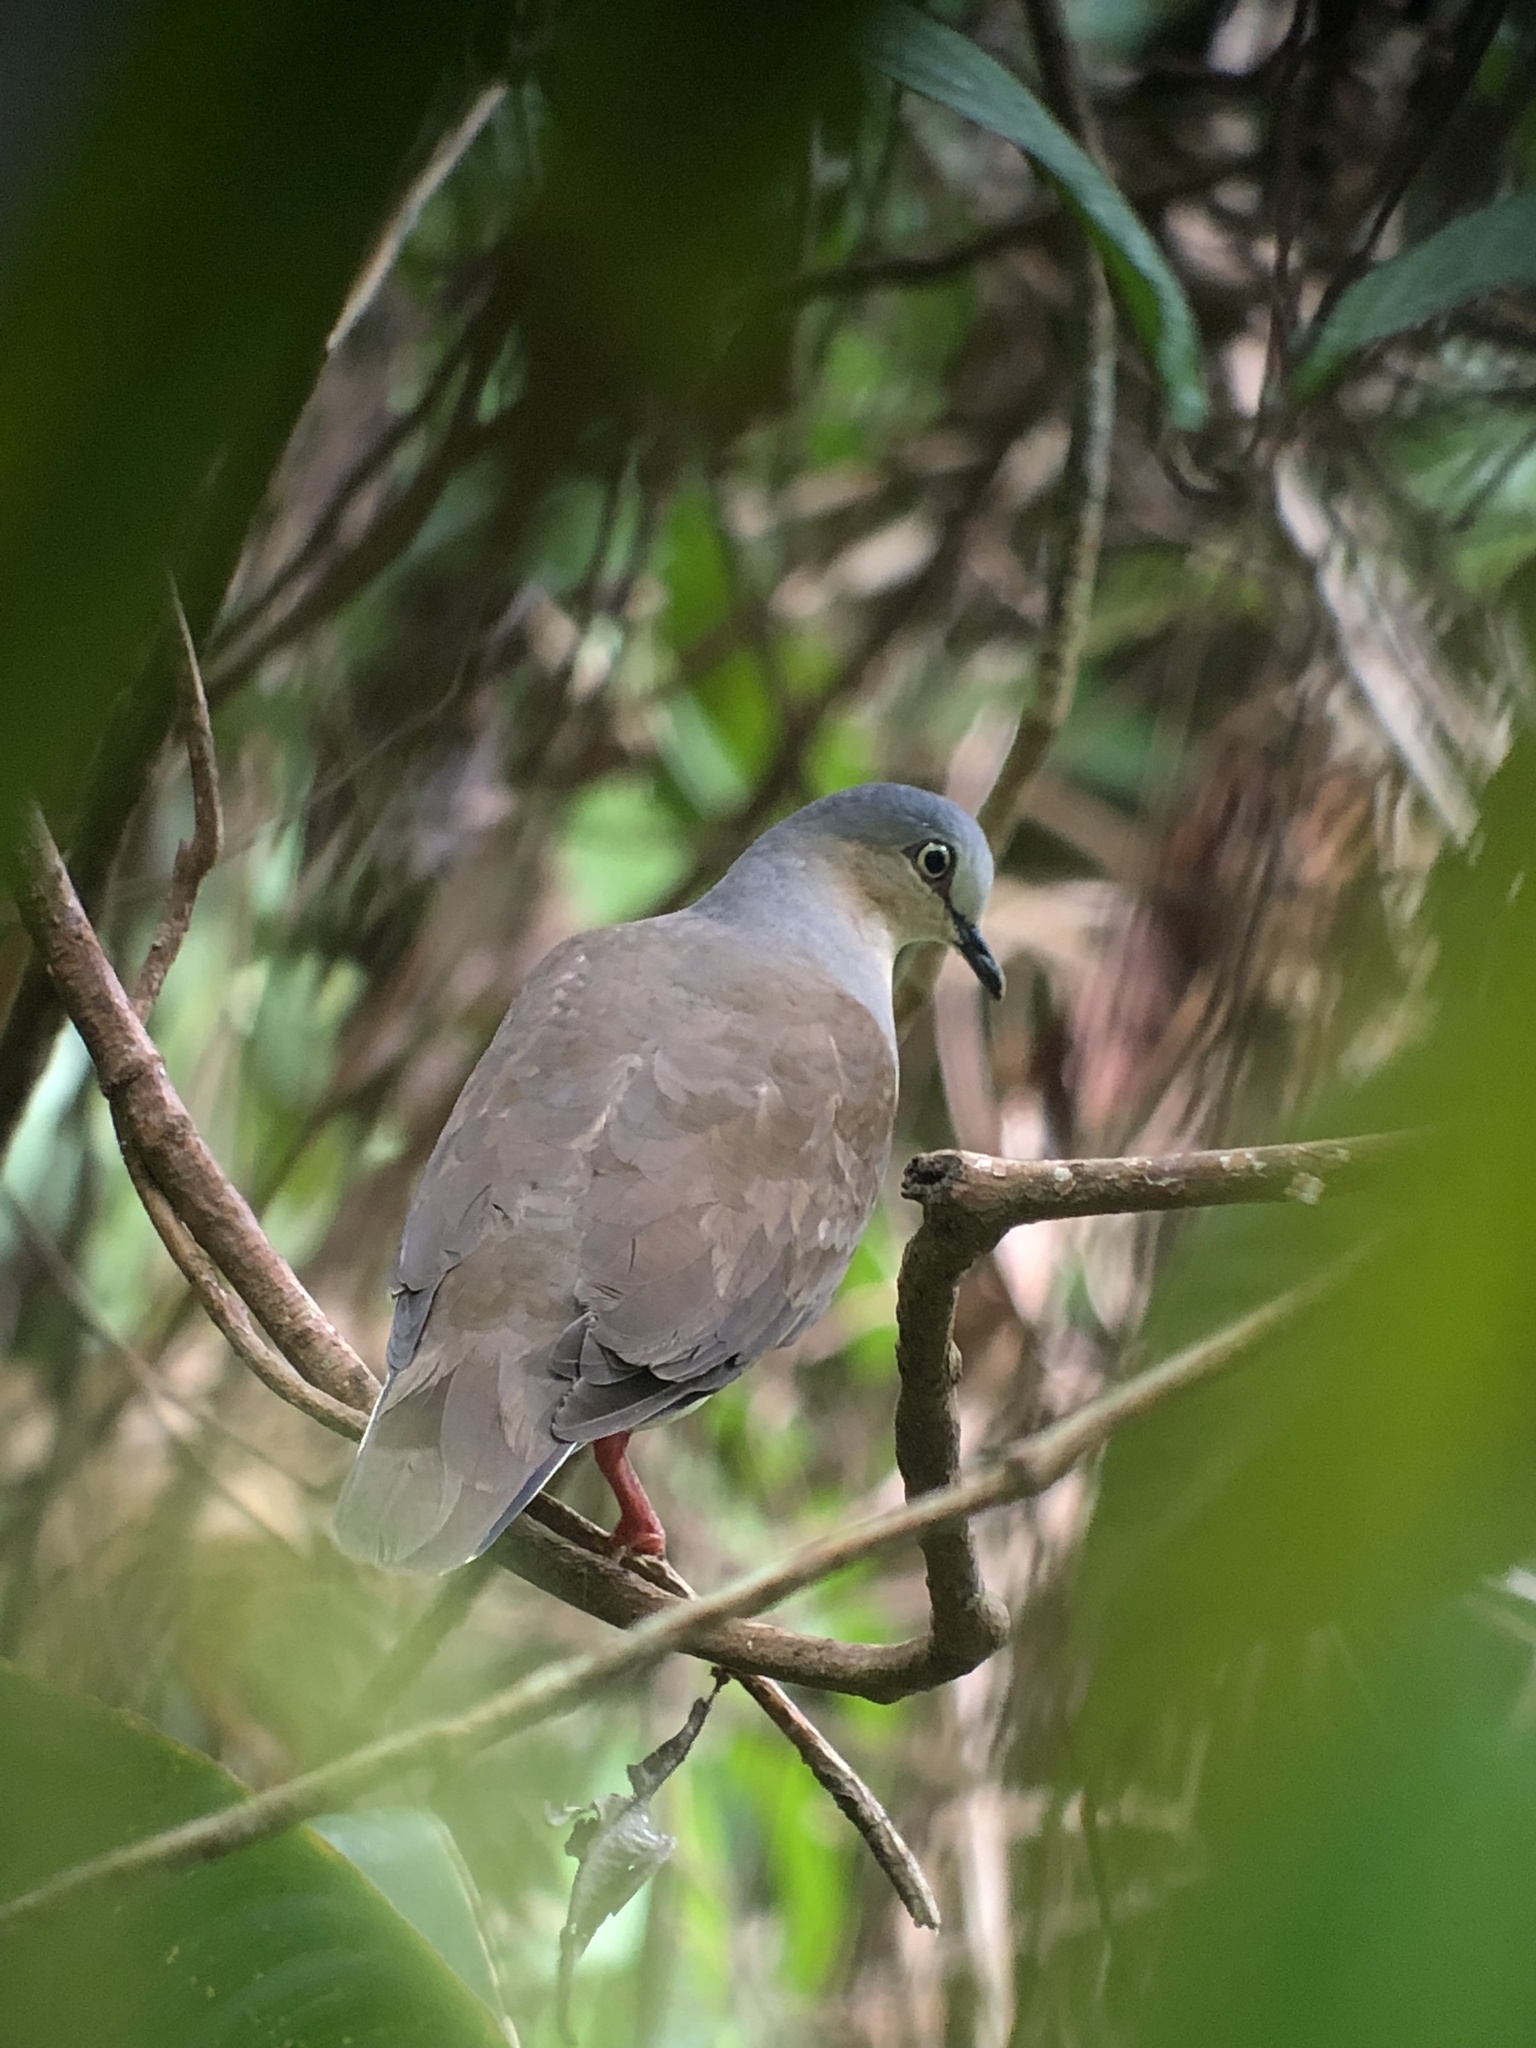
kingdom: Animalia
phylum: Chordata
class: Aves
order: Columbiformes
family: Columbidae
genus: Leptotila
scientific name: Leptotila plumbeiceps
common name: Grey-headed dove
